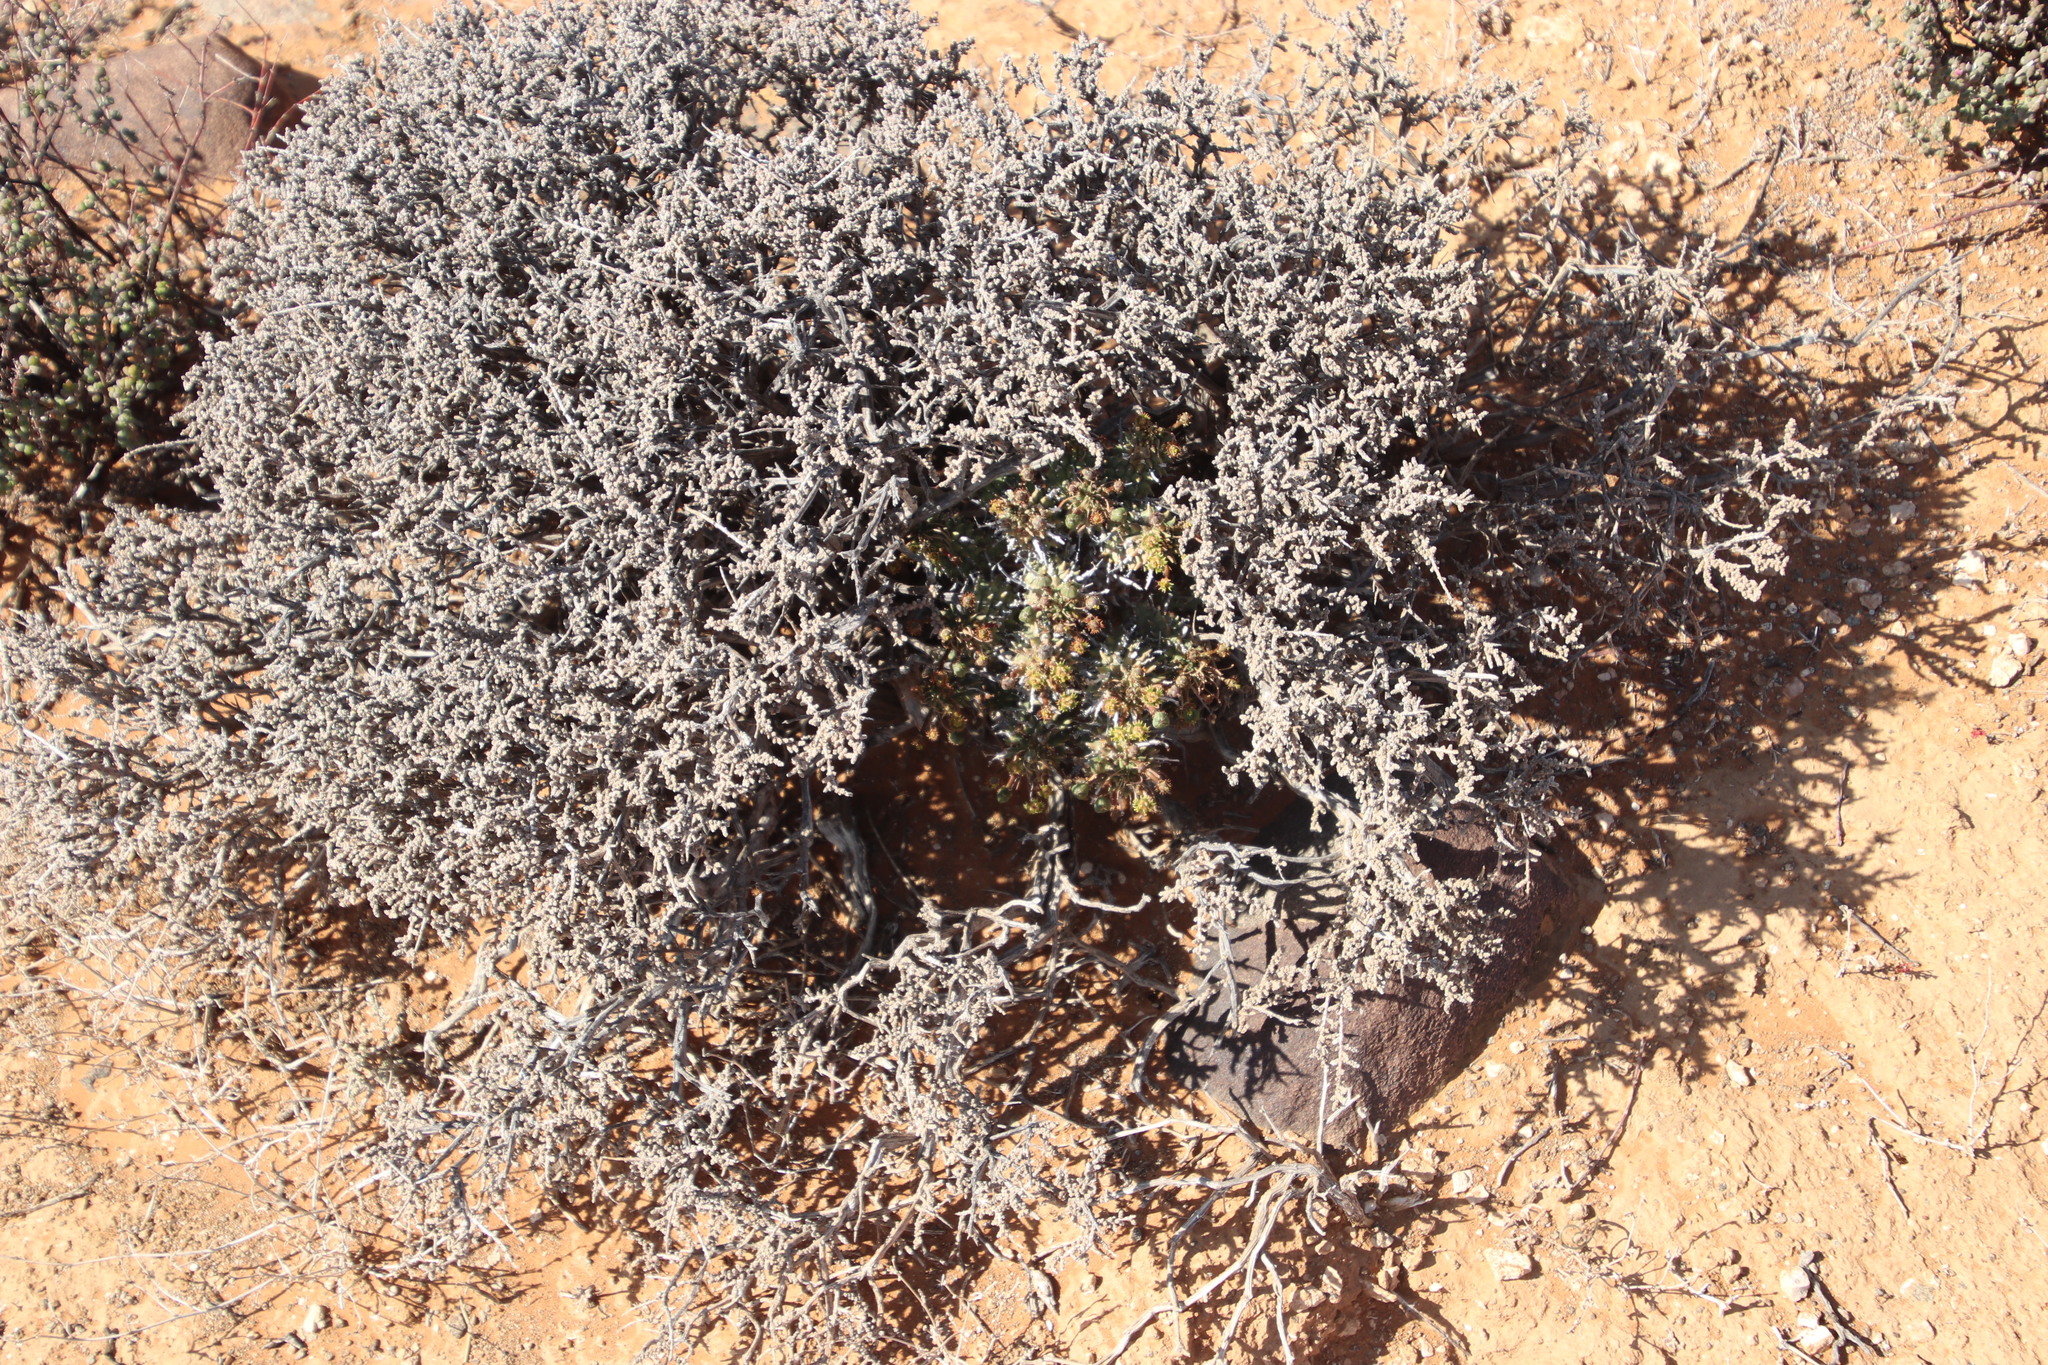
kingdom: Plantae
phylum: Tracheophyta
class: Magnoliopsida
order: Malpighiales
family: Euphorbiaceae
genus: Euphorbia
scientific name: Euphorbia multiceps
